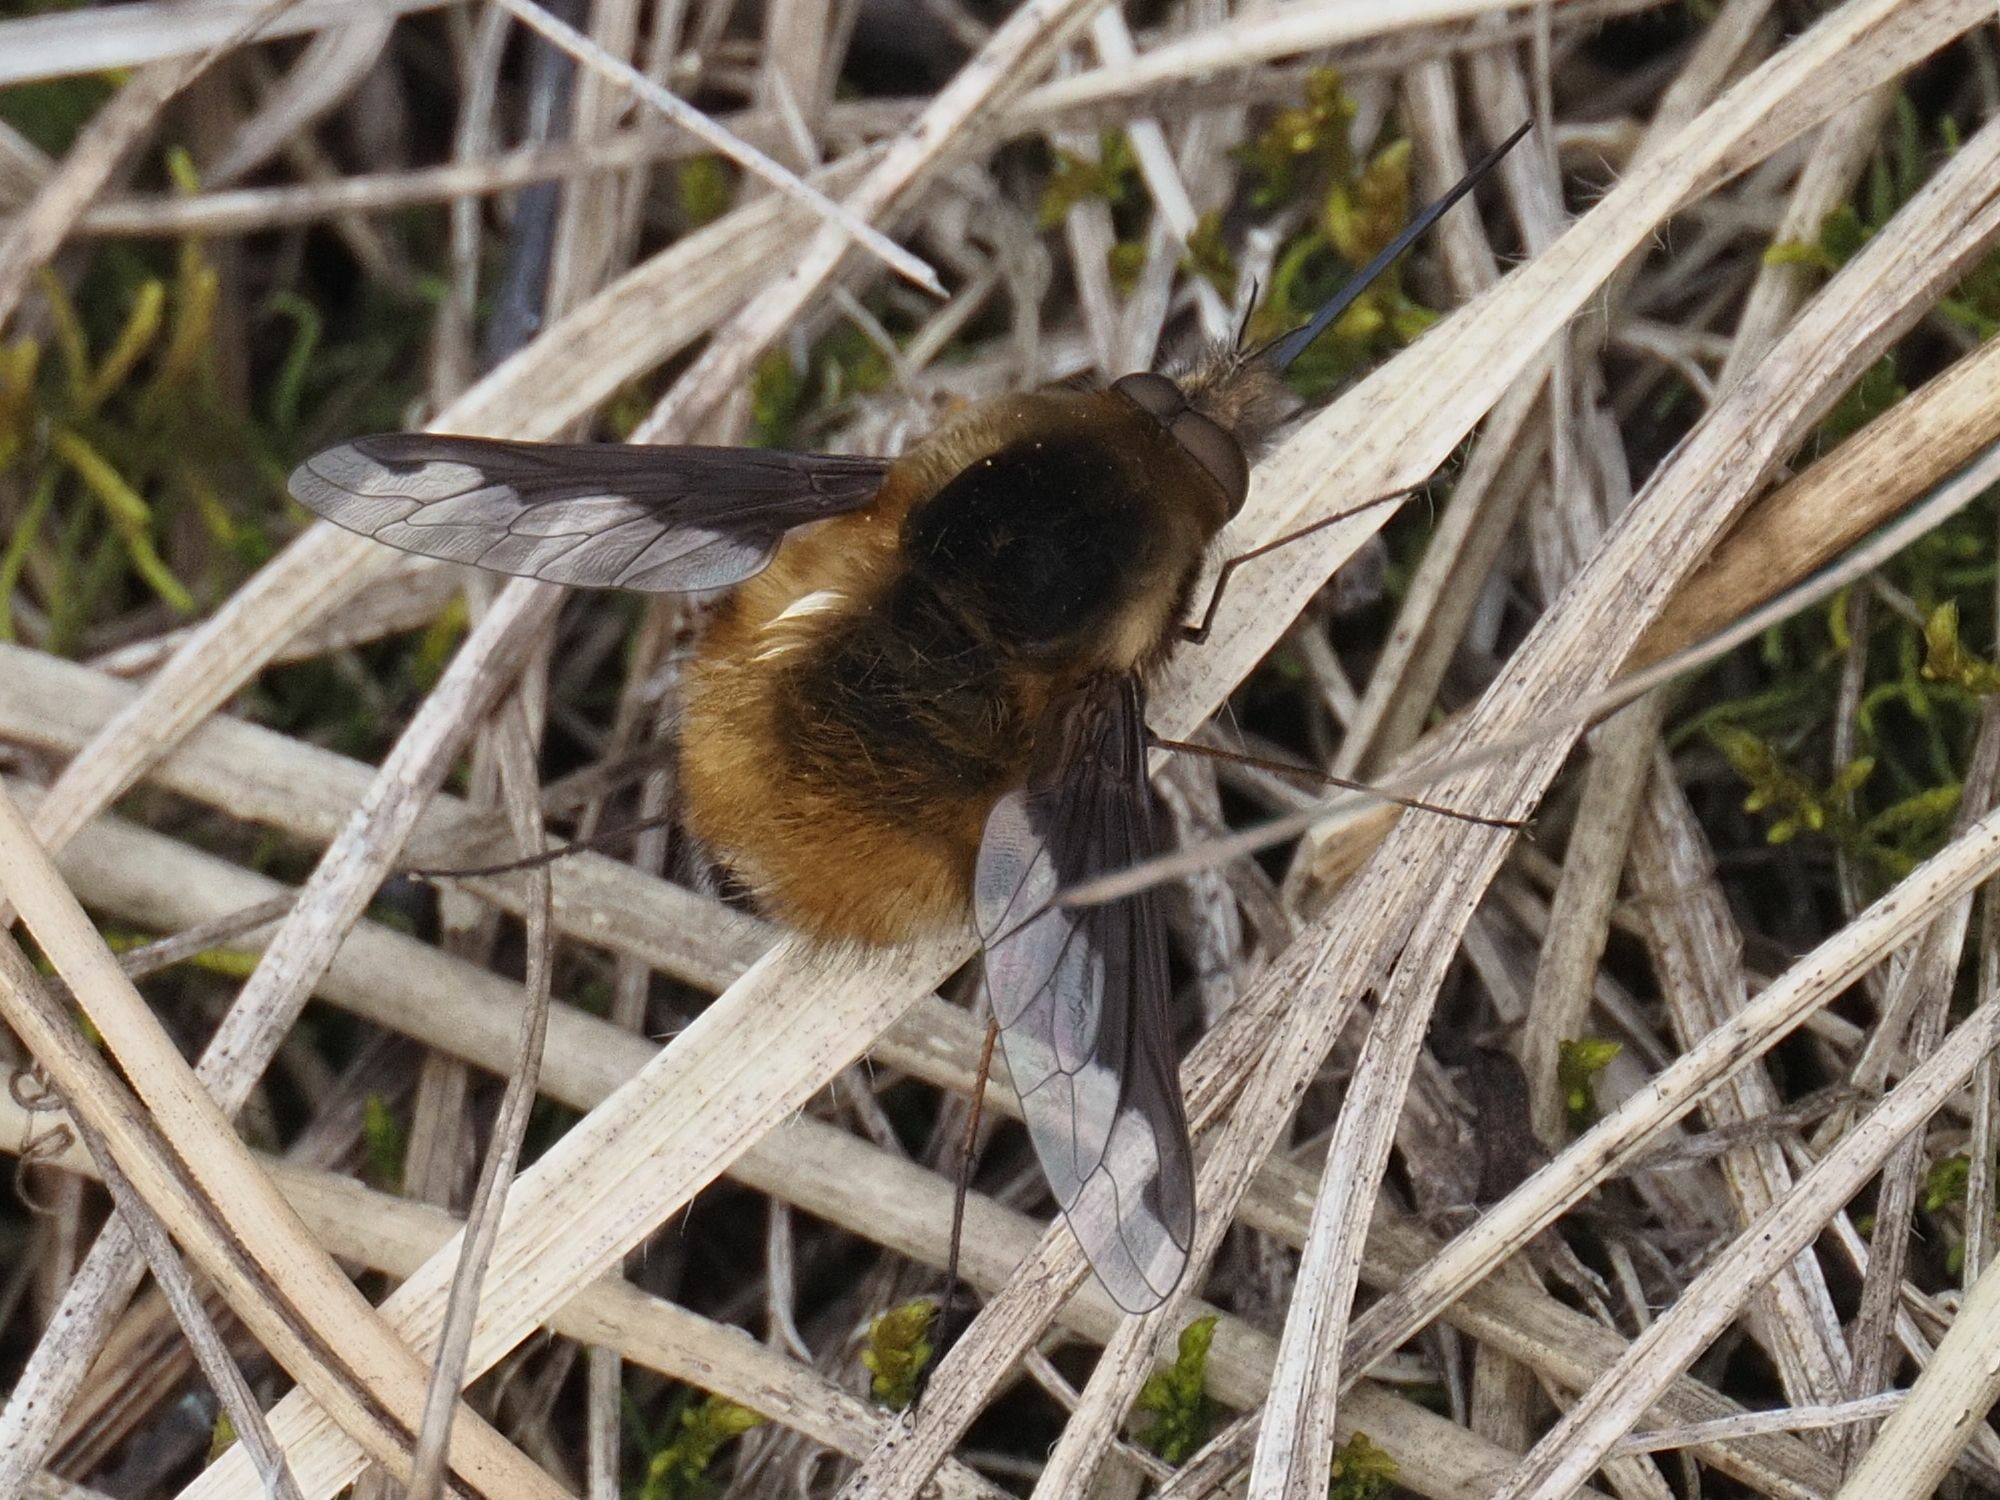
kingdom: Animalia
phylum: Arthropoda
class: Insecta
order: Diptera
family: Bombyliidae
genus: Bombylius
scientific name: Bombylius major
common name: Bee fly
